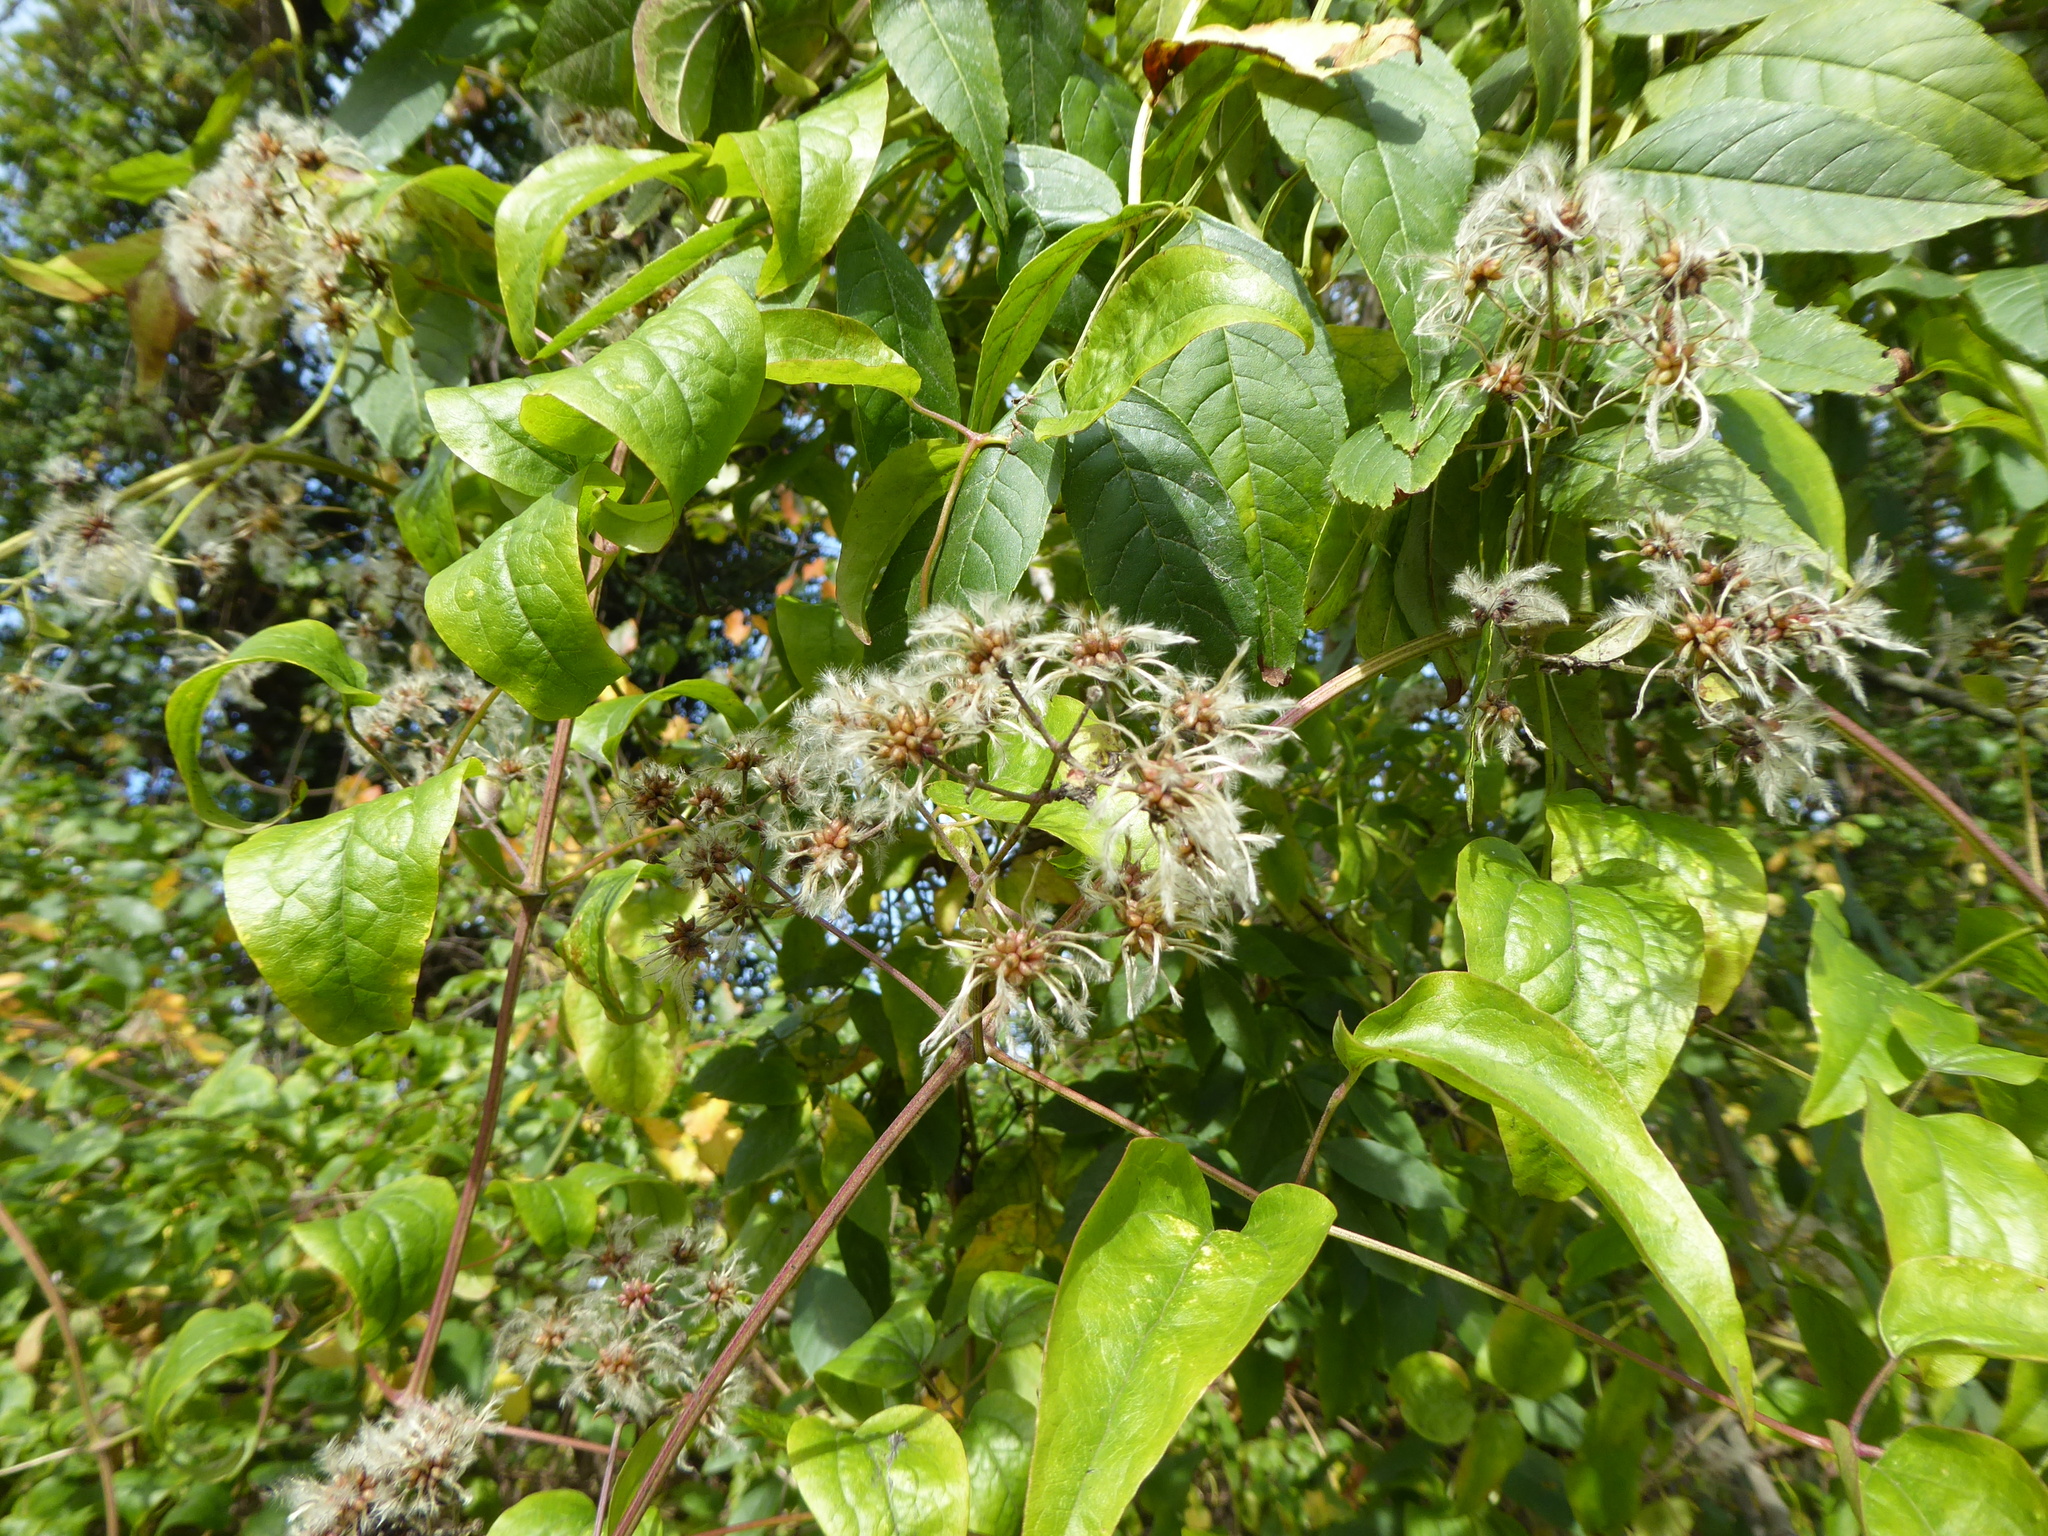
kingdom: Plantae
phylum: Tracheophyta
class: Magnoliopsida
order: Ranunculales
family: Ranunculaceae
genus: Clematis
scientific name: Clematis vitalba
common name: Evergreen clematis
